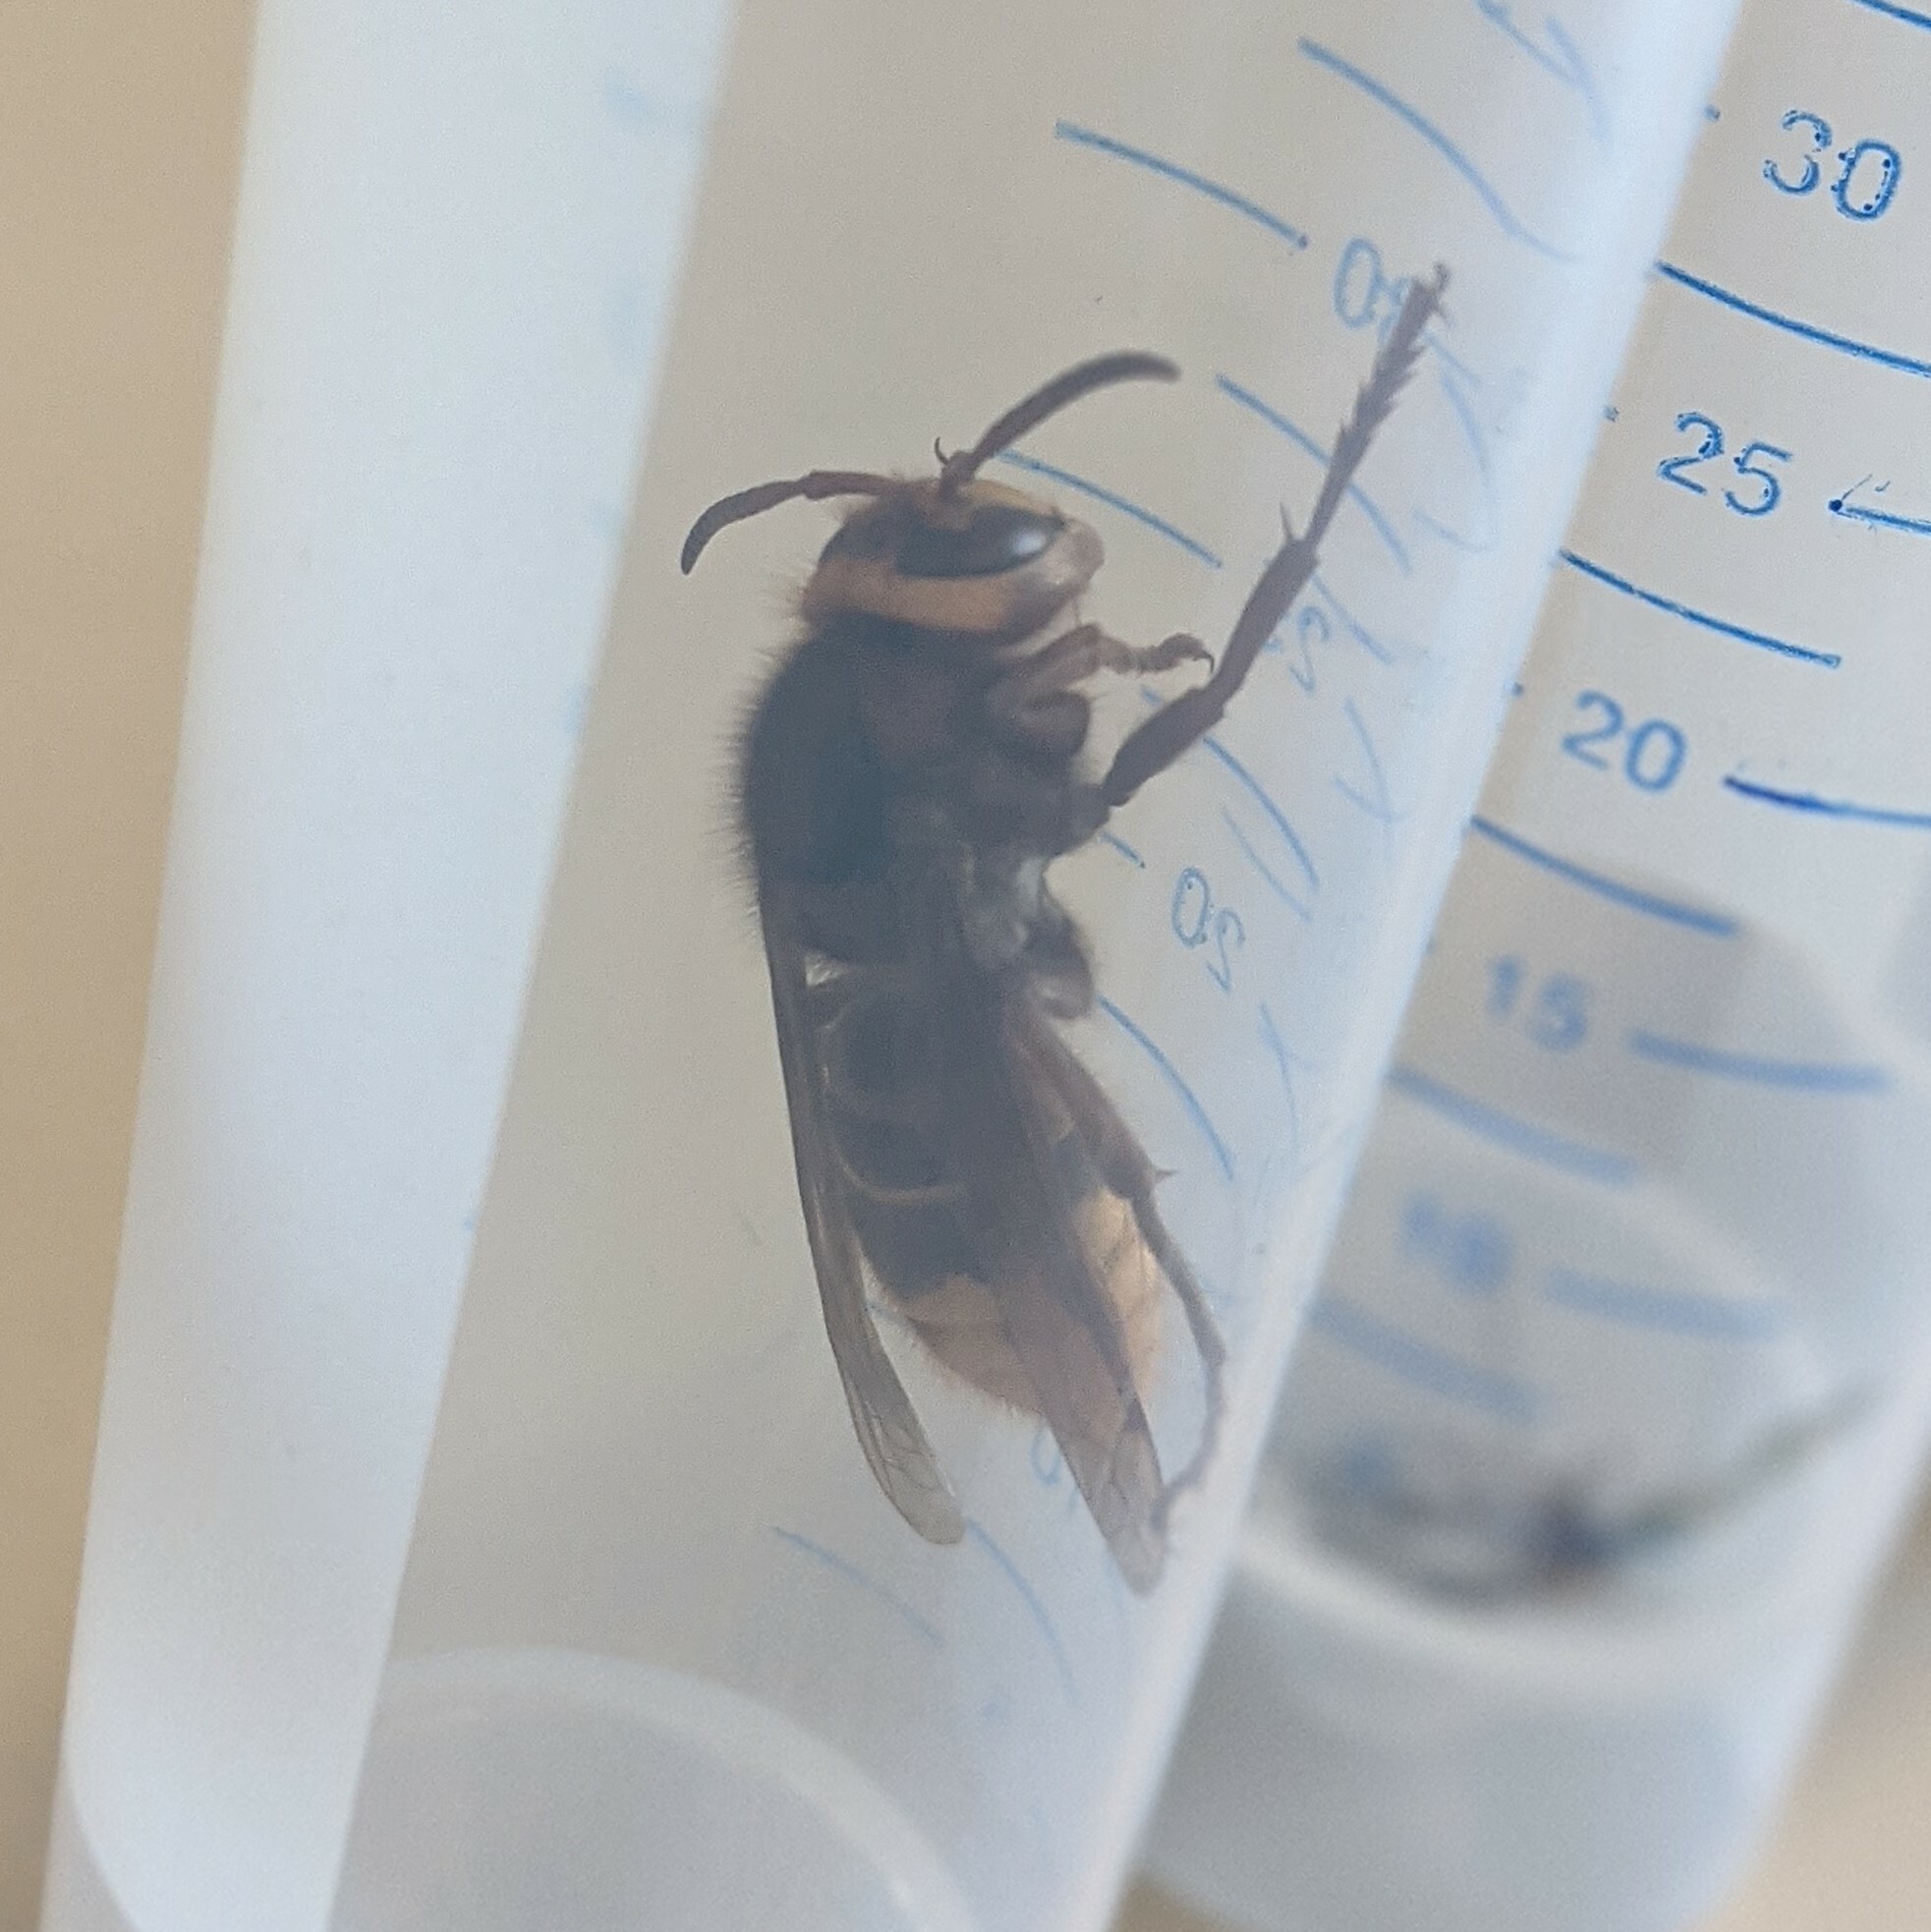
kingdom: Animalia
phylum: Arthropoda
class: Insecta
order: Hymenoptera
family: Vespidae
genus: Vespa
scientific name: Vespa crabro
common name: Hornet
